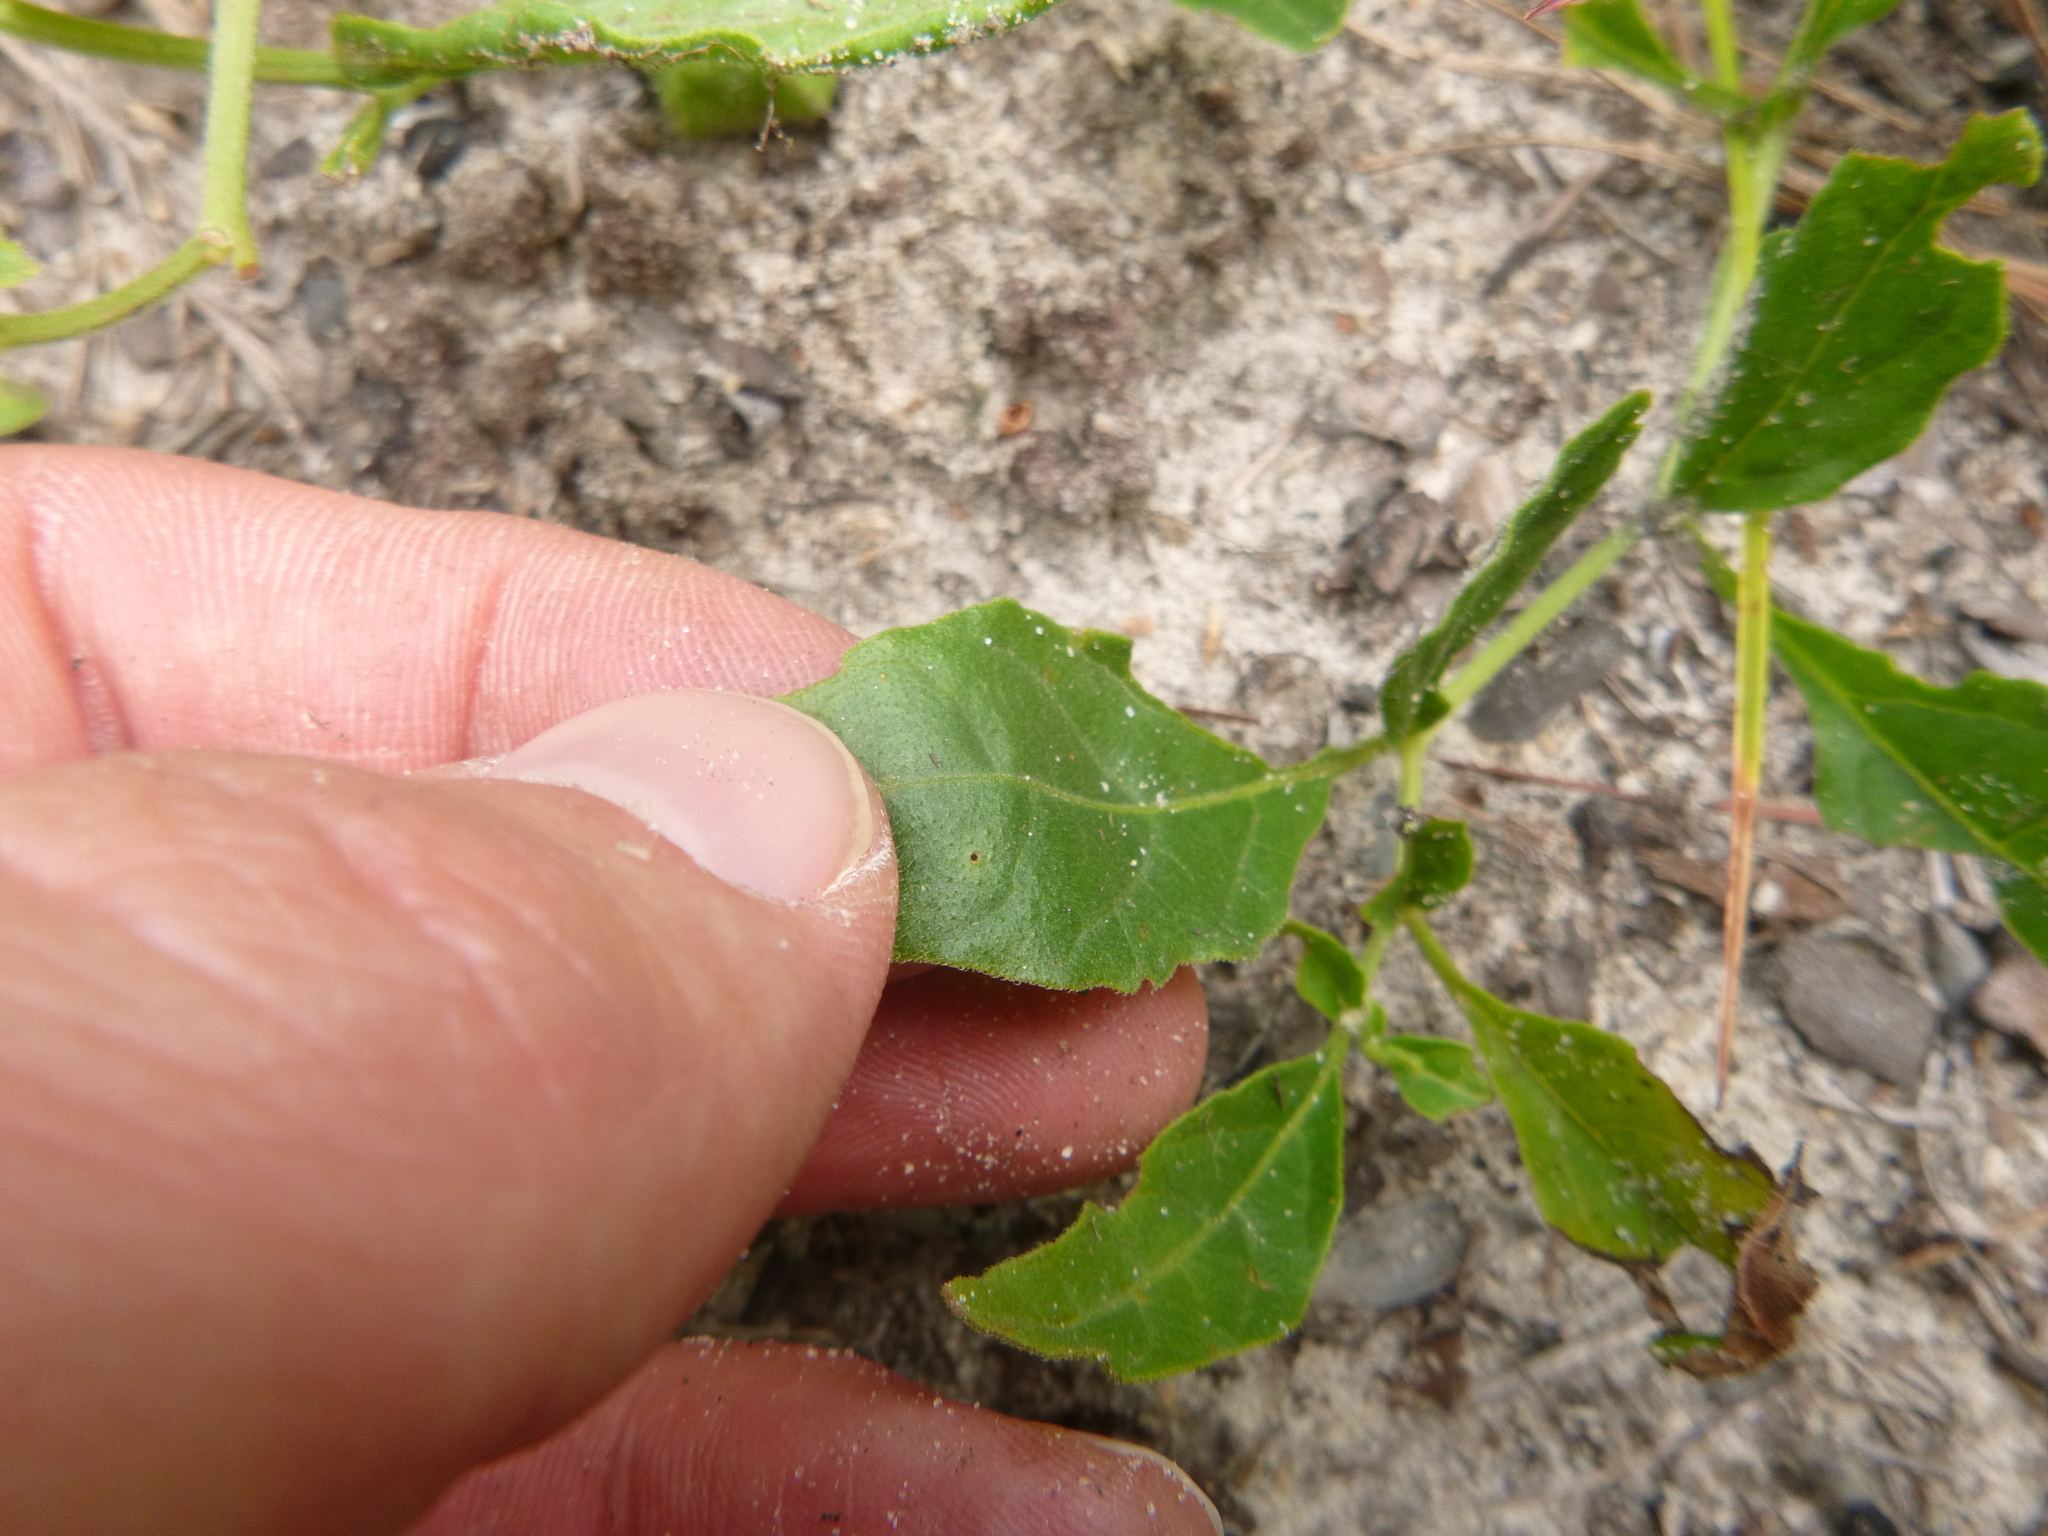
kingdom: Plantae
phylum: Tracheophyta
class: Magnoliopsida
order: Solanales
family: Solanaceae
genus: Physalis
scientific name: Physalis lanceolata
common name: Lance-leaved ground-cherry
